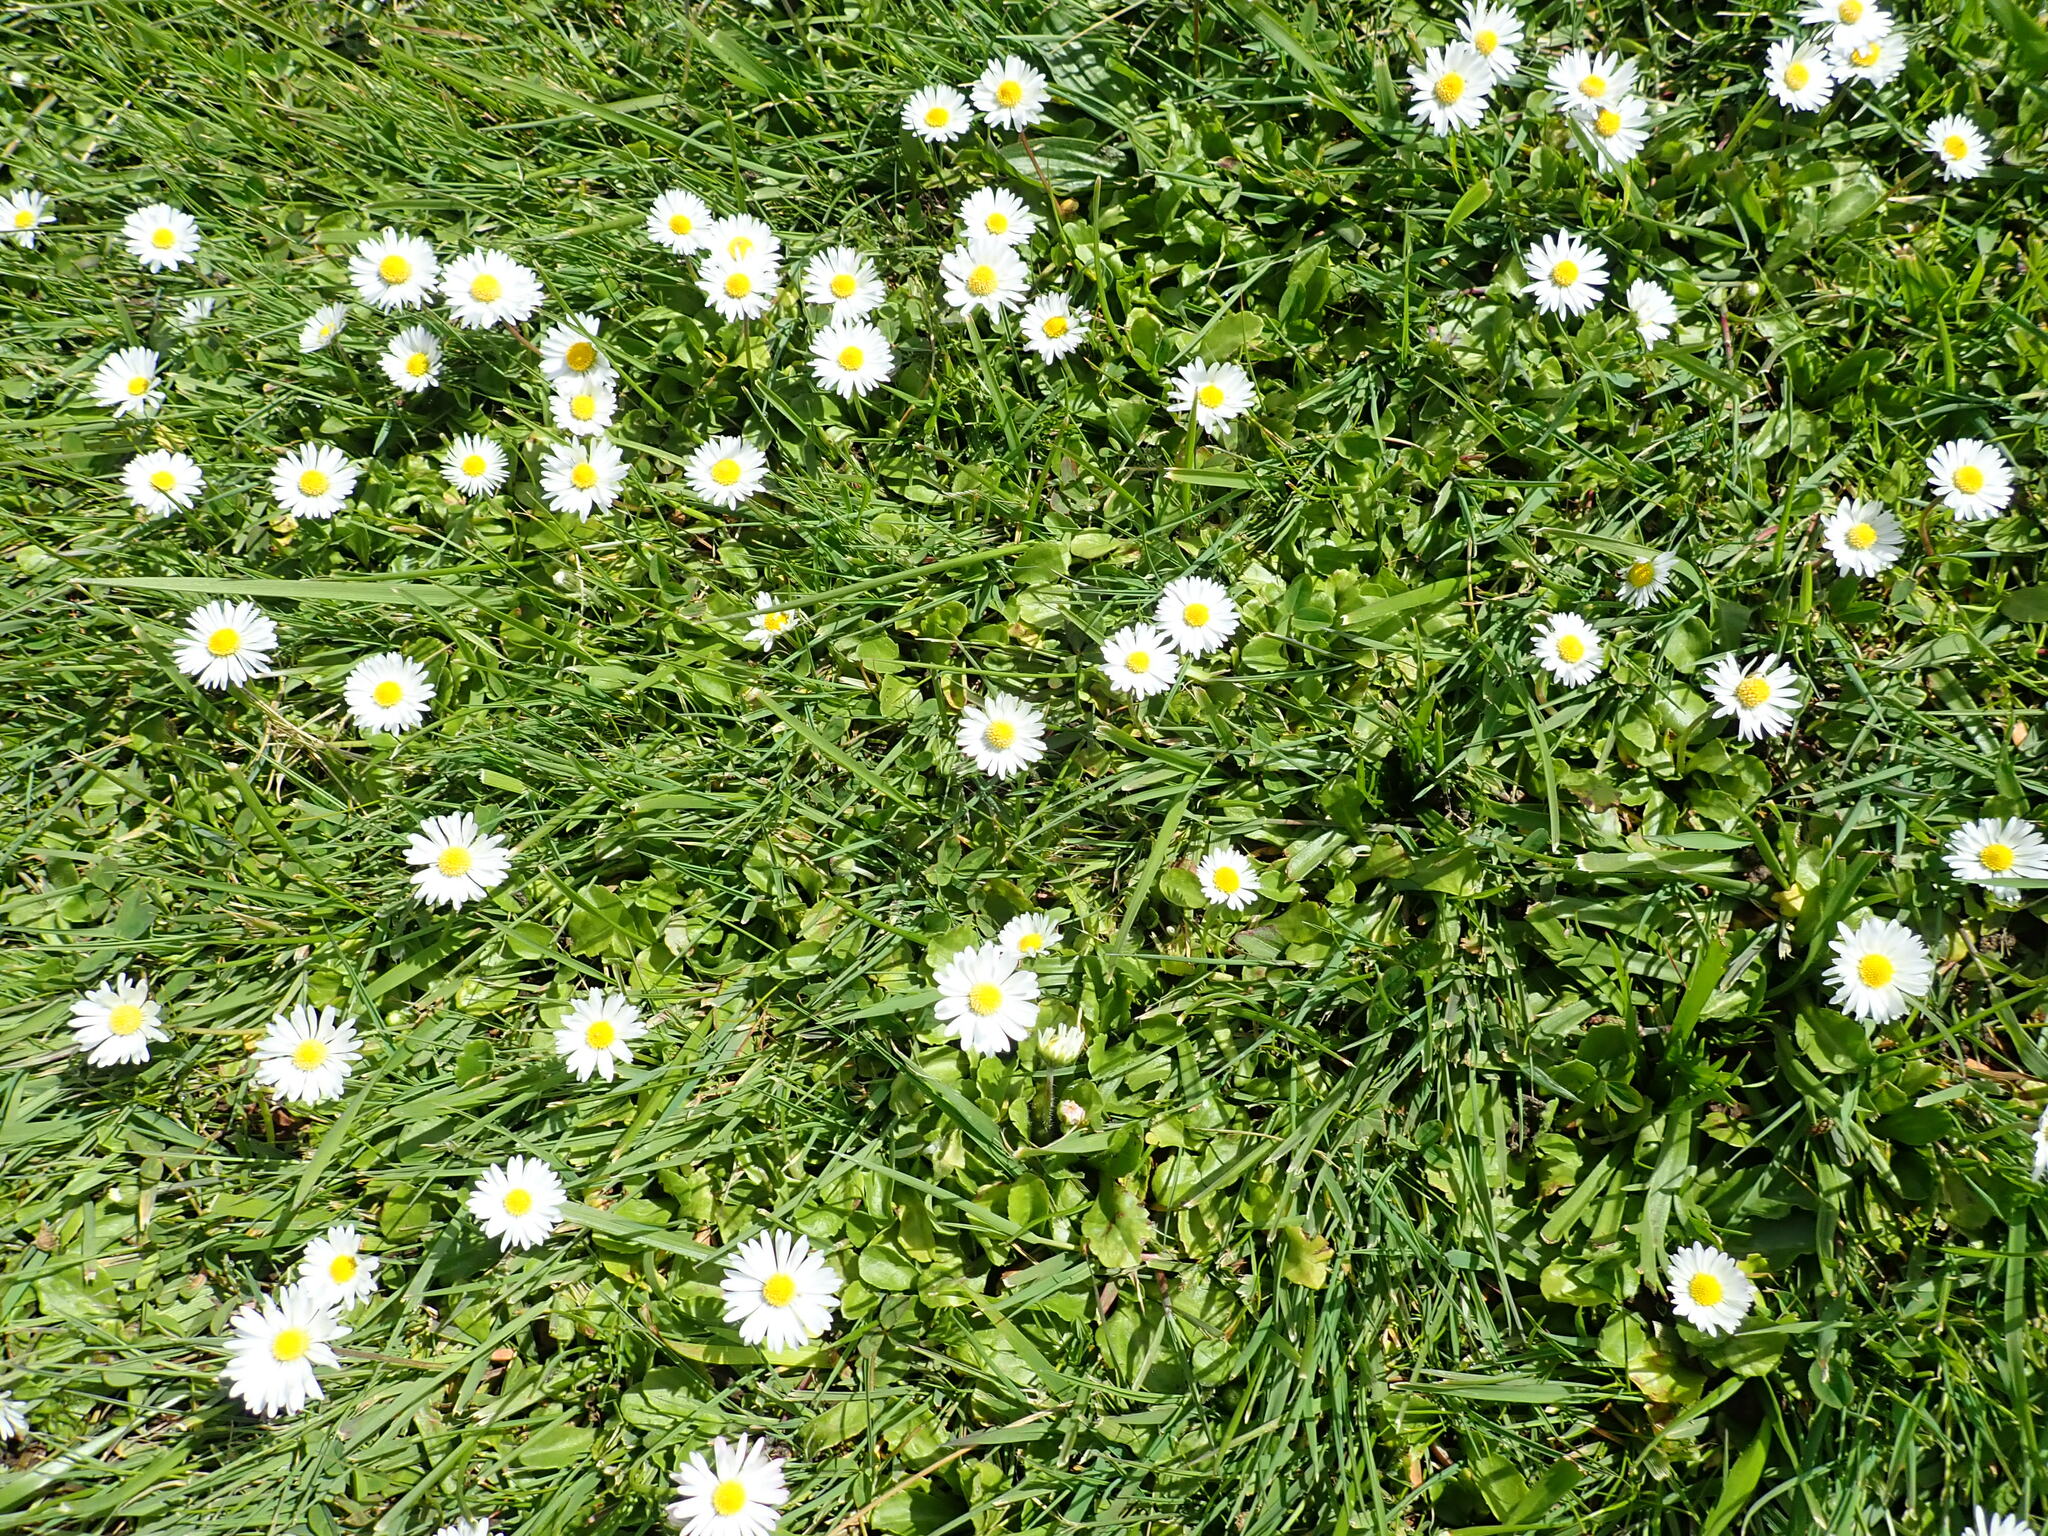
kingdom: Plantae
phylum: Tracheophyta
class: Magnoliopsida
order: Asterales
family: Asteraceae
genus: Bellis
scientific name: Bellis perennis
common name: Lawndaisy
